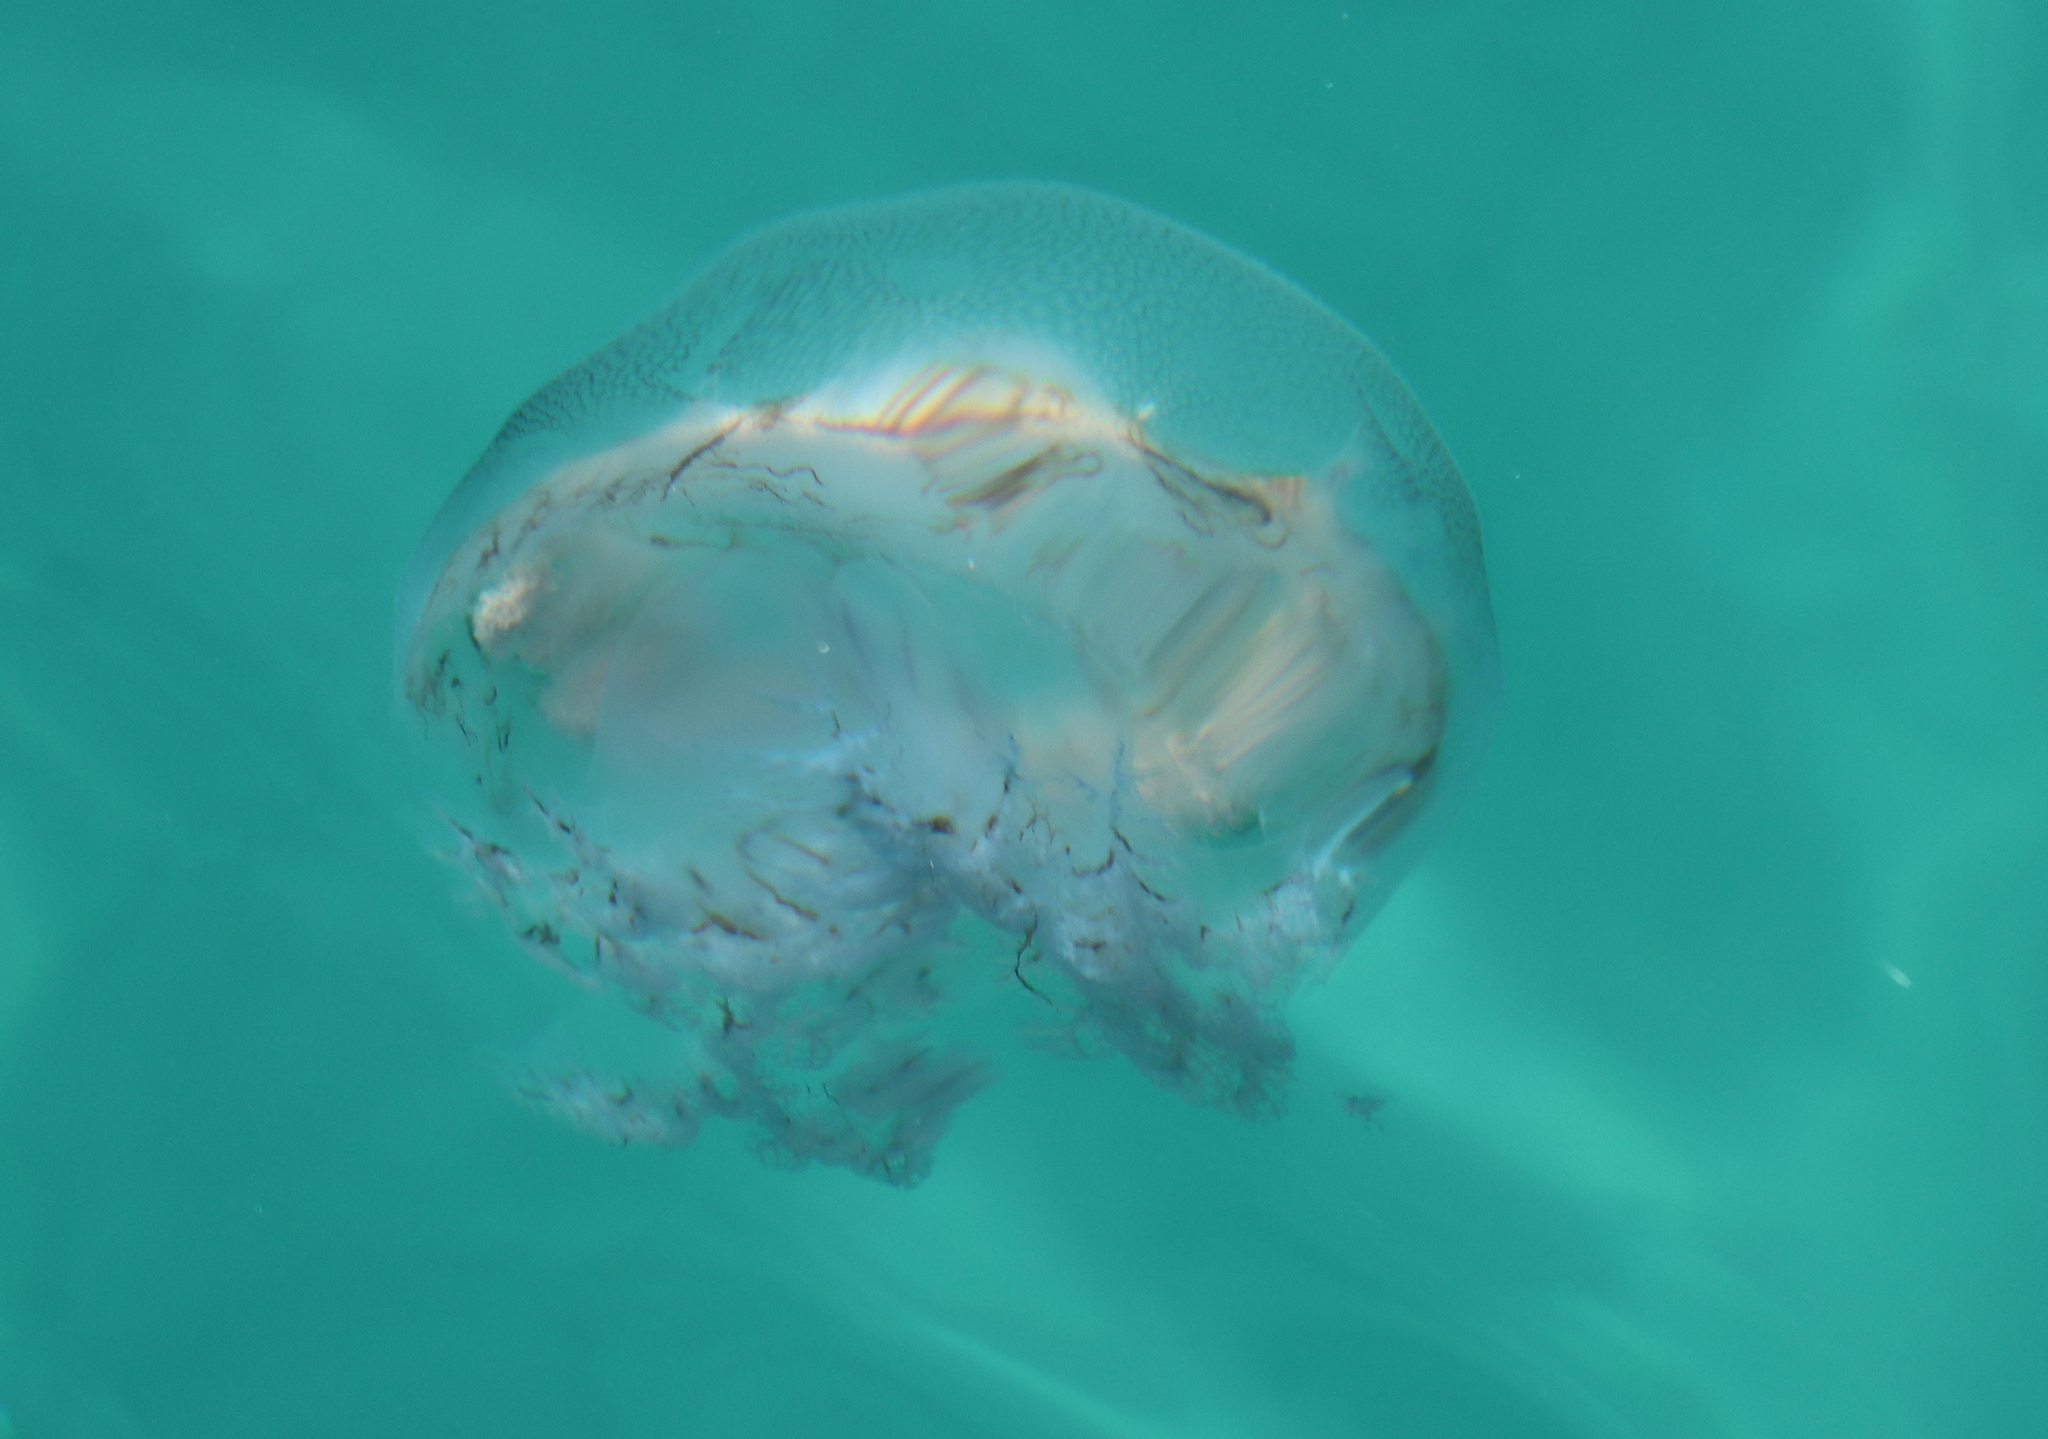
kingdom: Animalia
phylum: Cnidaria
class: Scyphozoa
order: Rhizostomeae
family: Lychnorhizidae
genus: Pseudorhiza
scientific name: Pseudorhiza haeckeli
